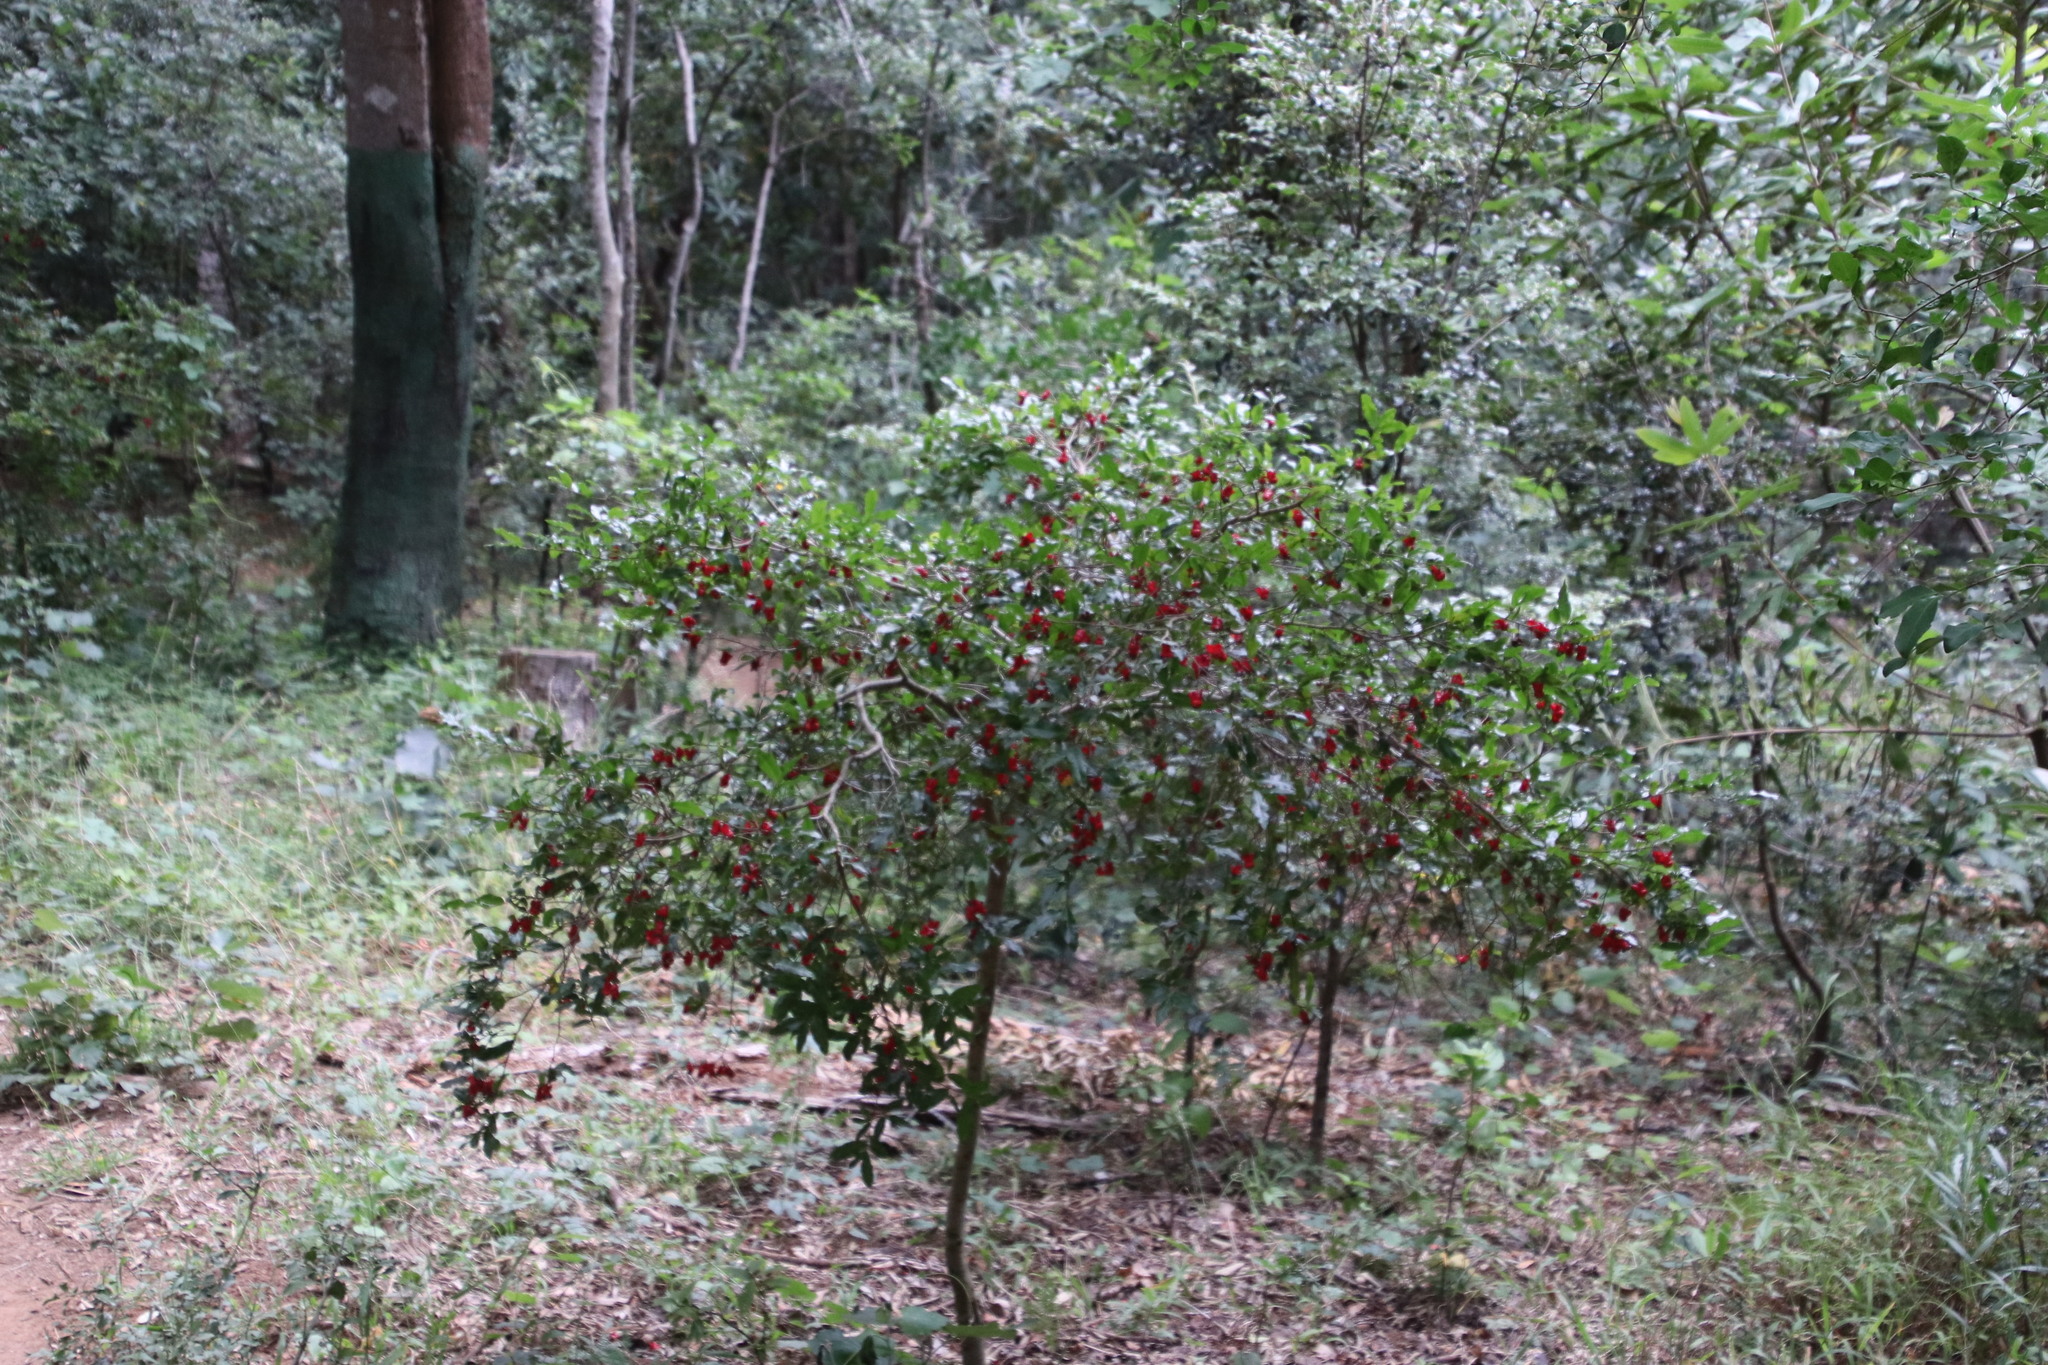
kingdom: Plantae
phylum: Tracheophyta
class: Magnoliopsida
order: Malpighiales
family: Ochnaceae
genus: Ochna
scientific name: Ochna serrulata
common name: Mickey mouse plant
